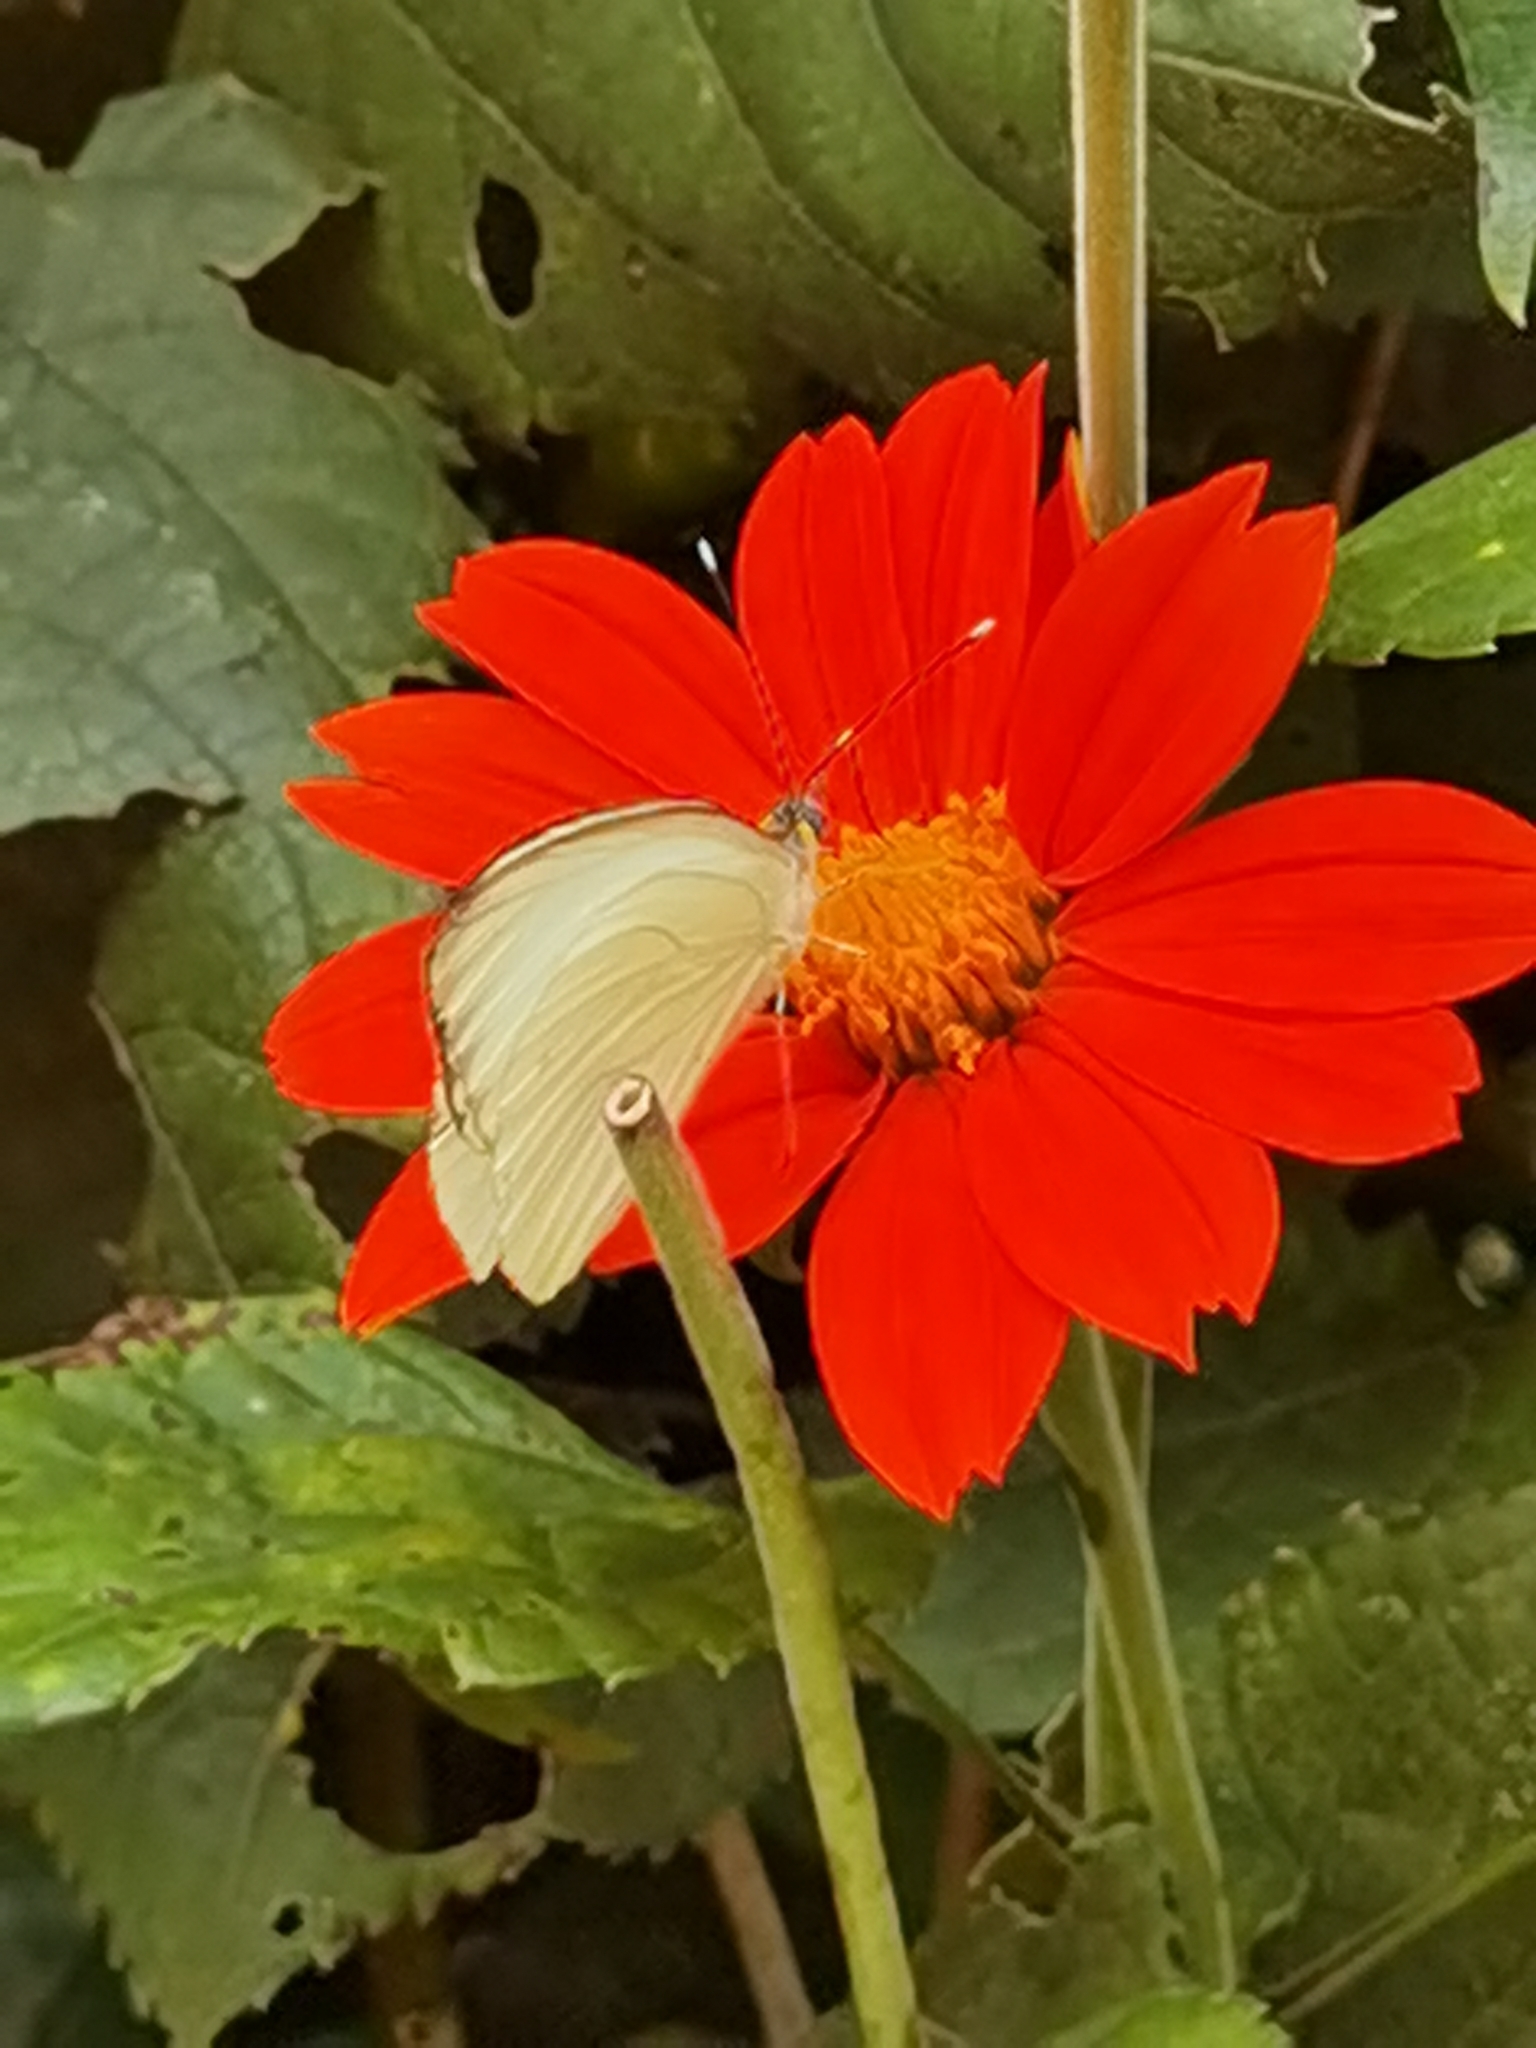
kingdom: Animalia
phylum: Arthropoda
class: Insecta
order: Lepidoptera
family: Pieridae
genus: Leptophobia
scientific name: Leptophobia aripa
